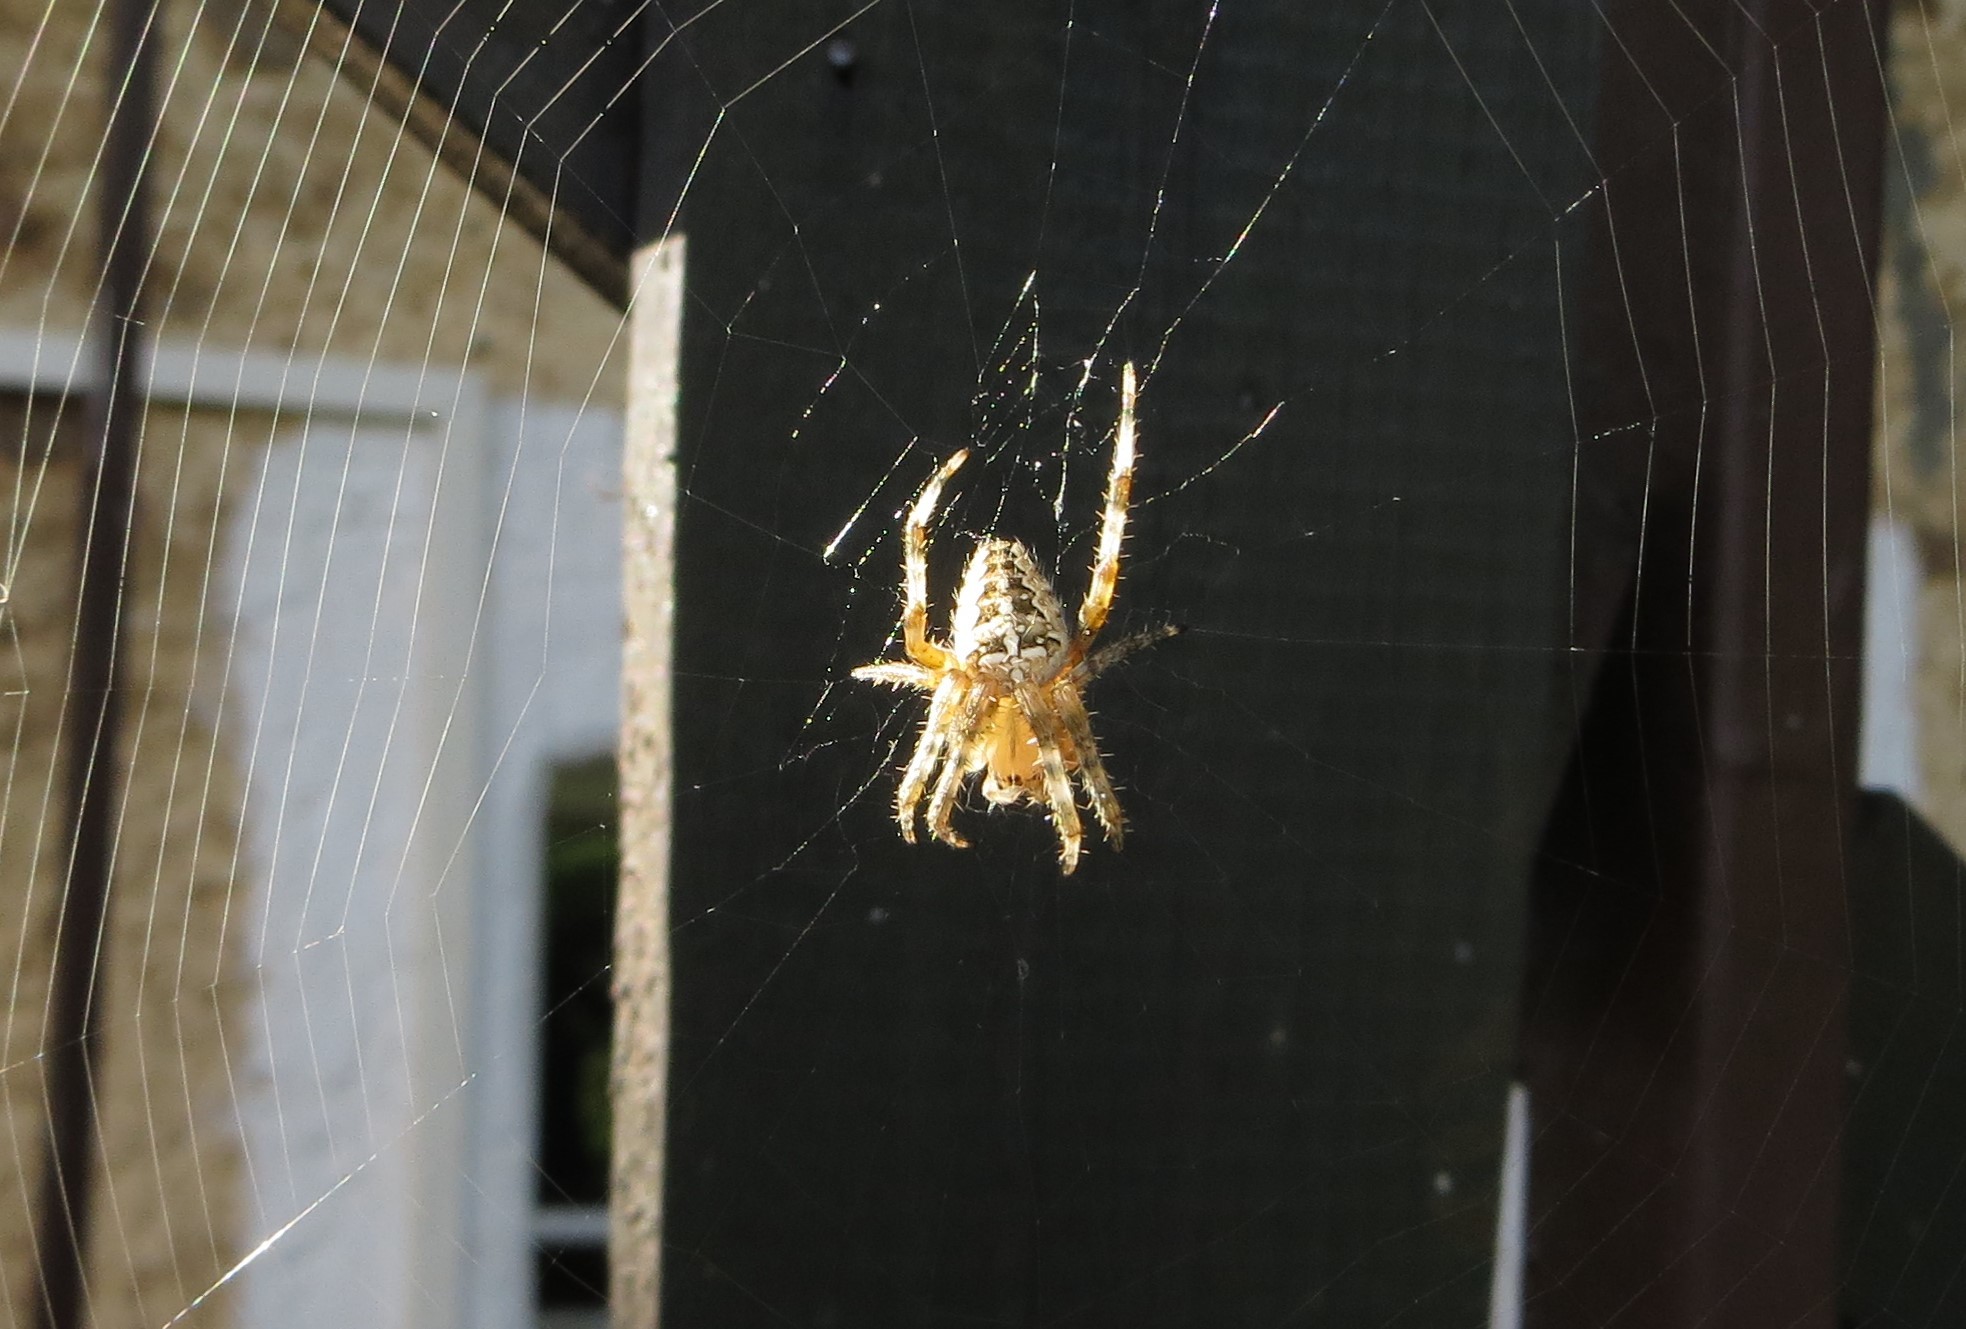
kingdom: Animalia
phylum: Arthropoda
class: Arachnida
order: Araneae
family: Araneidae
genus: Araneus
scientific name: Araneus diadematus
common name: Cross orbweaver
